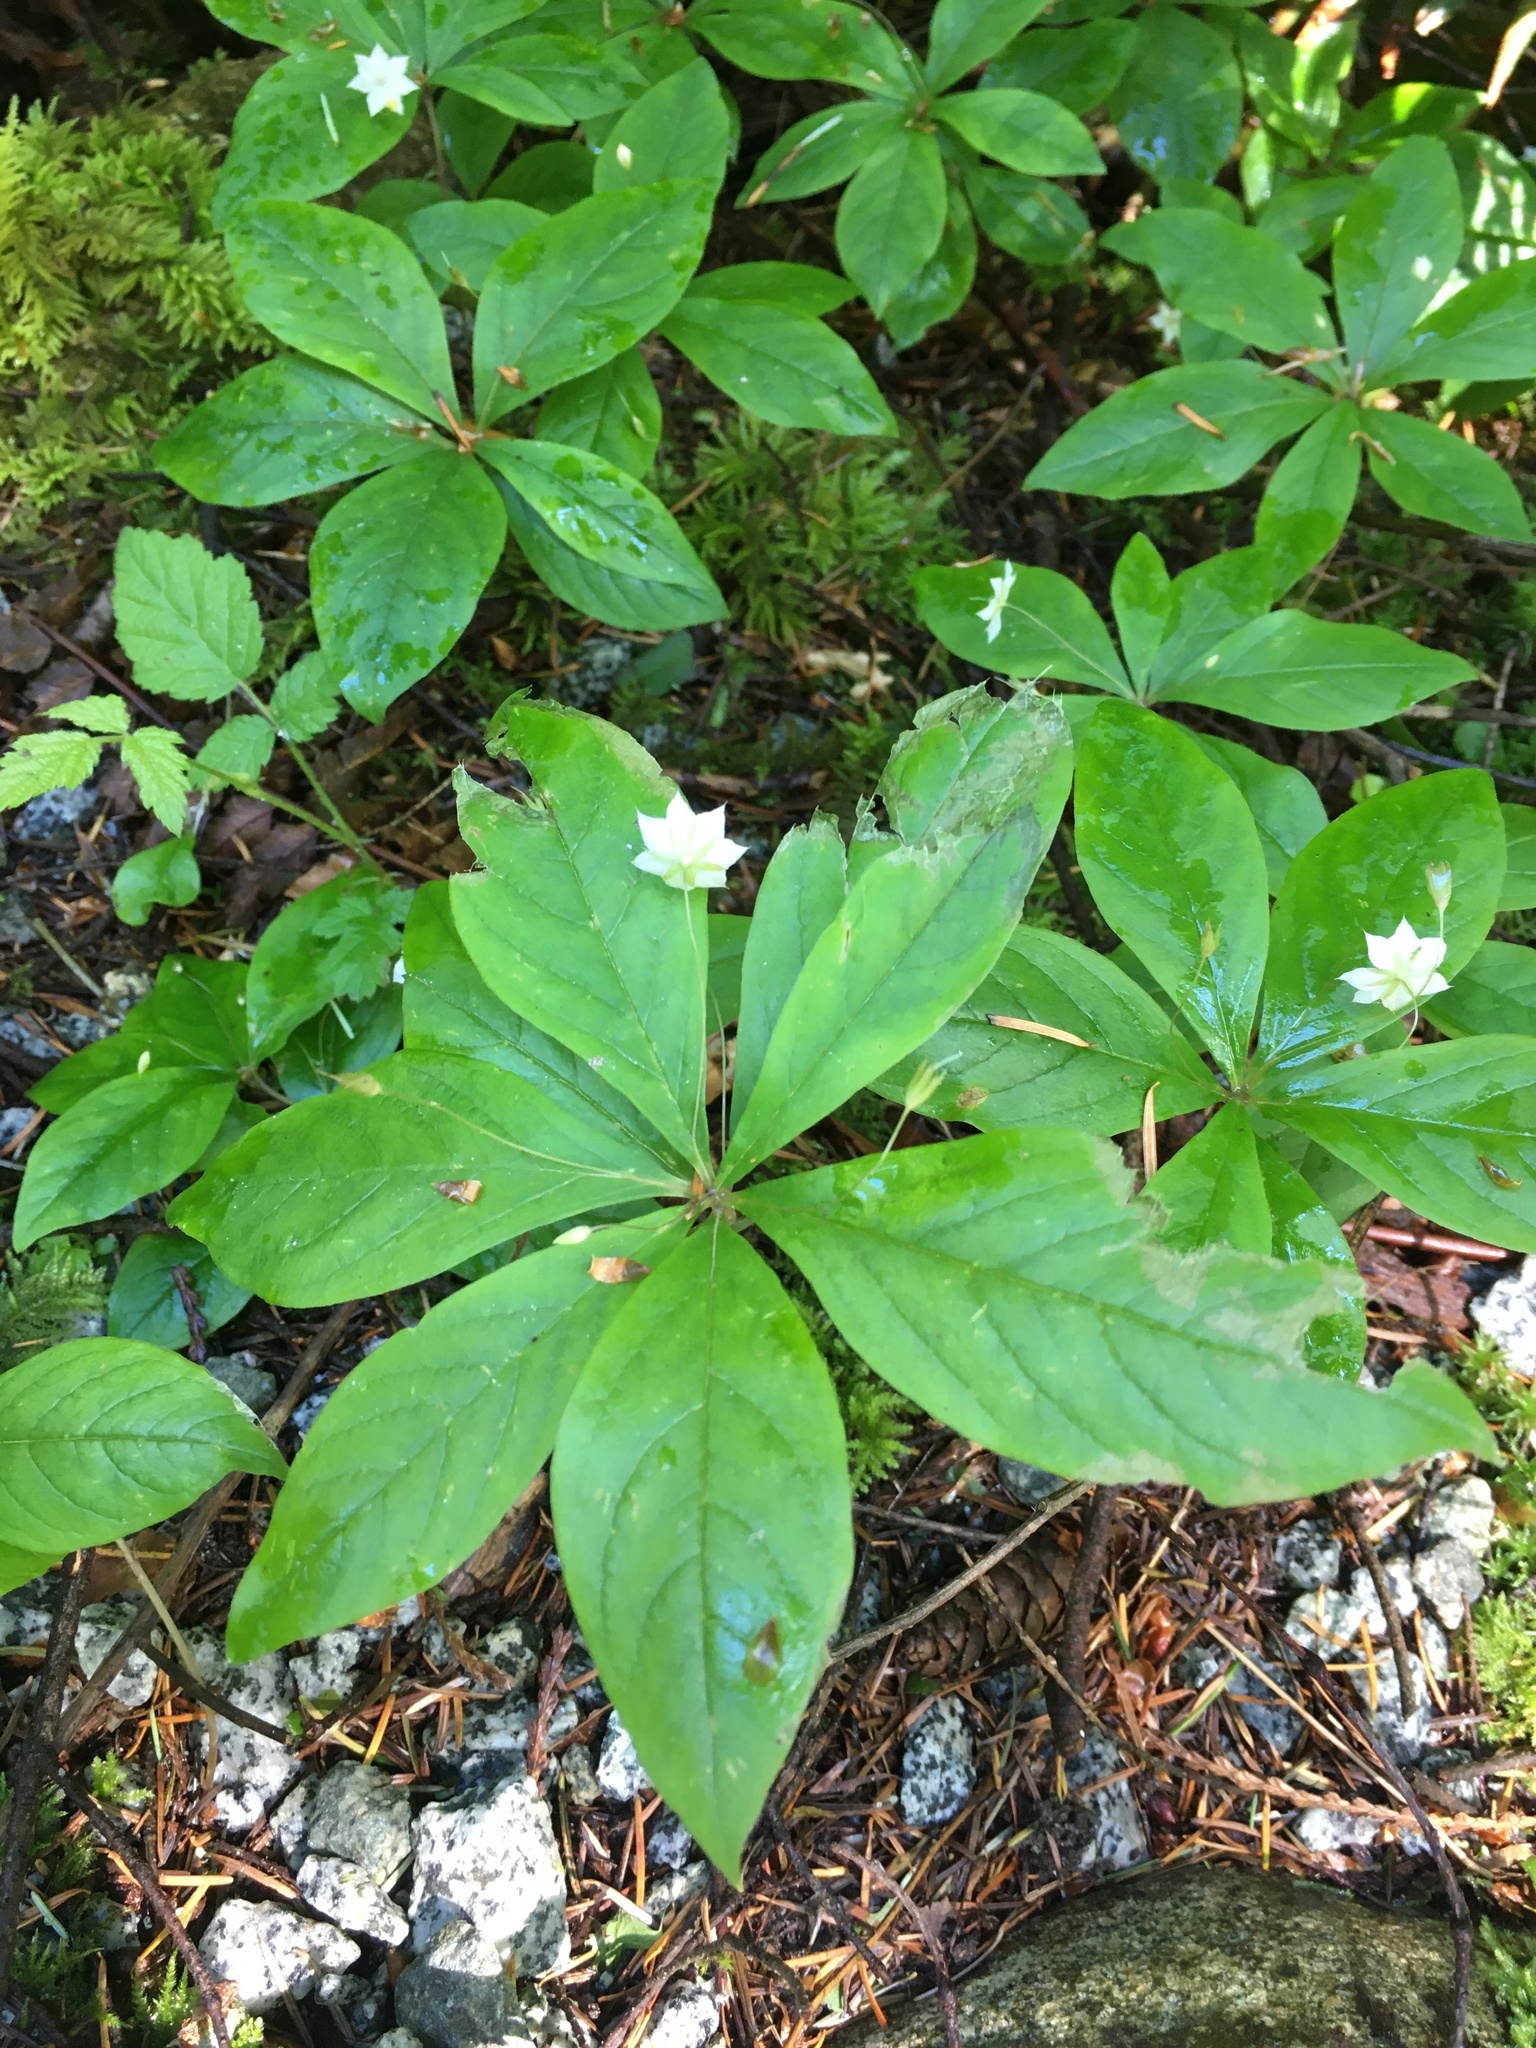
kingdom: Plantae
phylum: Tracheophyta
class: Magnoliopsida
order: Ericales
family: Primulaceae
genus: Lysimachia
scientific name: Lysimachia latifolia
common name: Pacific starflower
